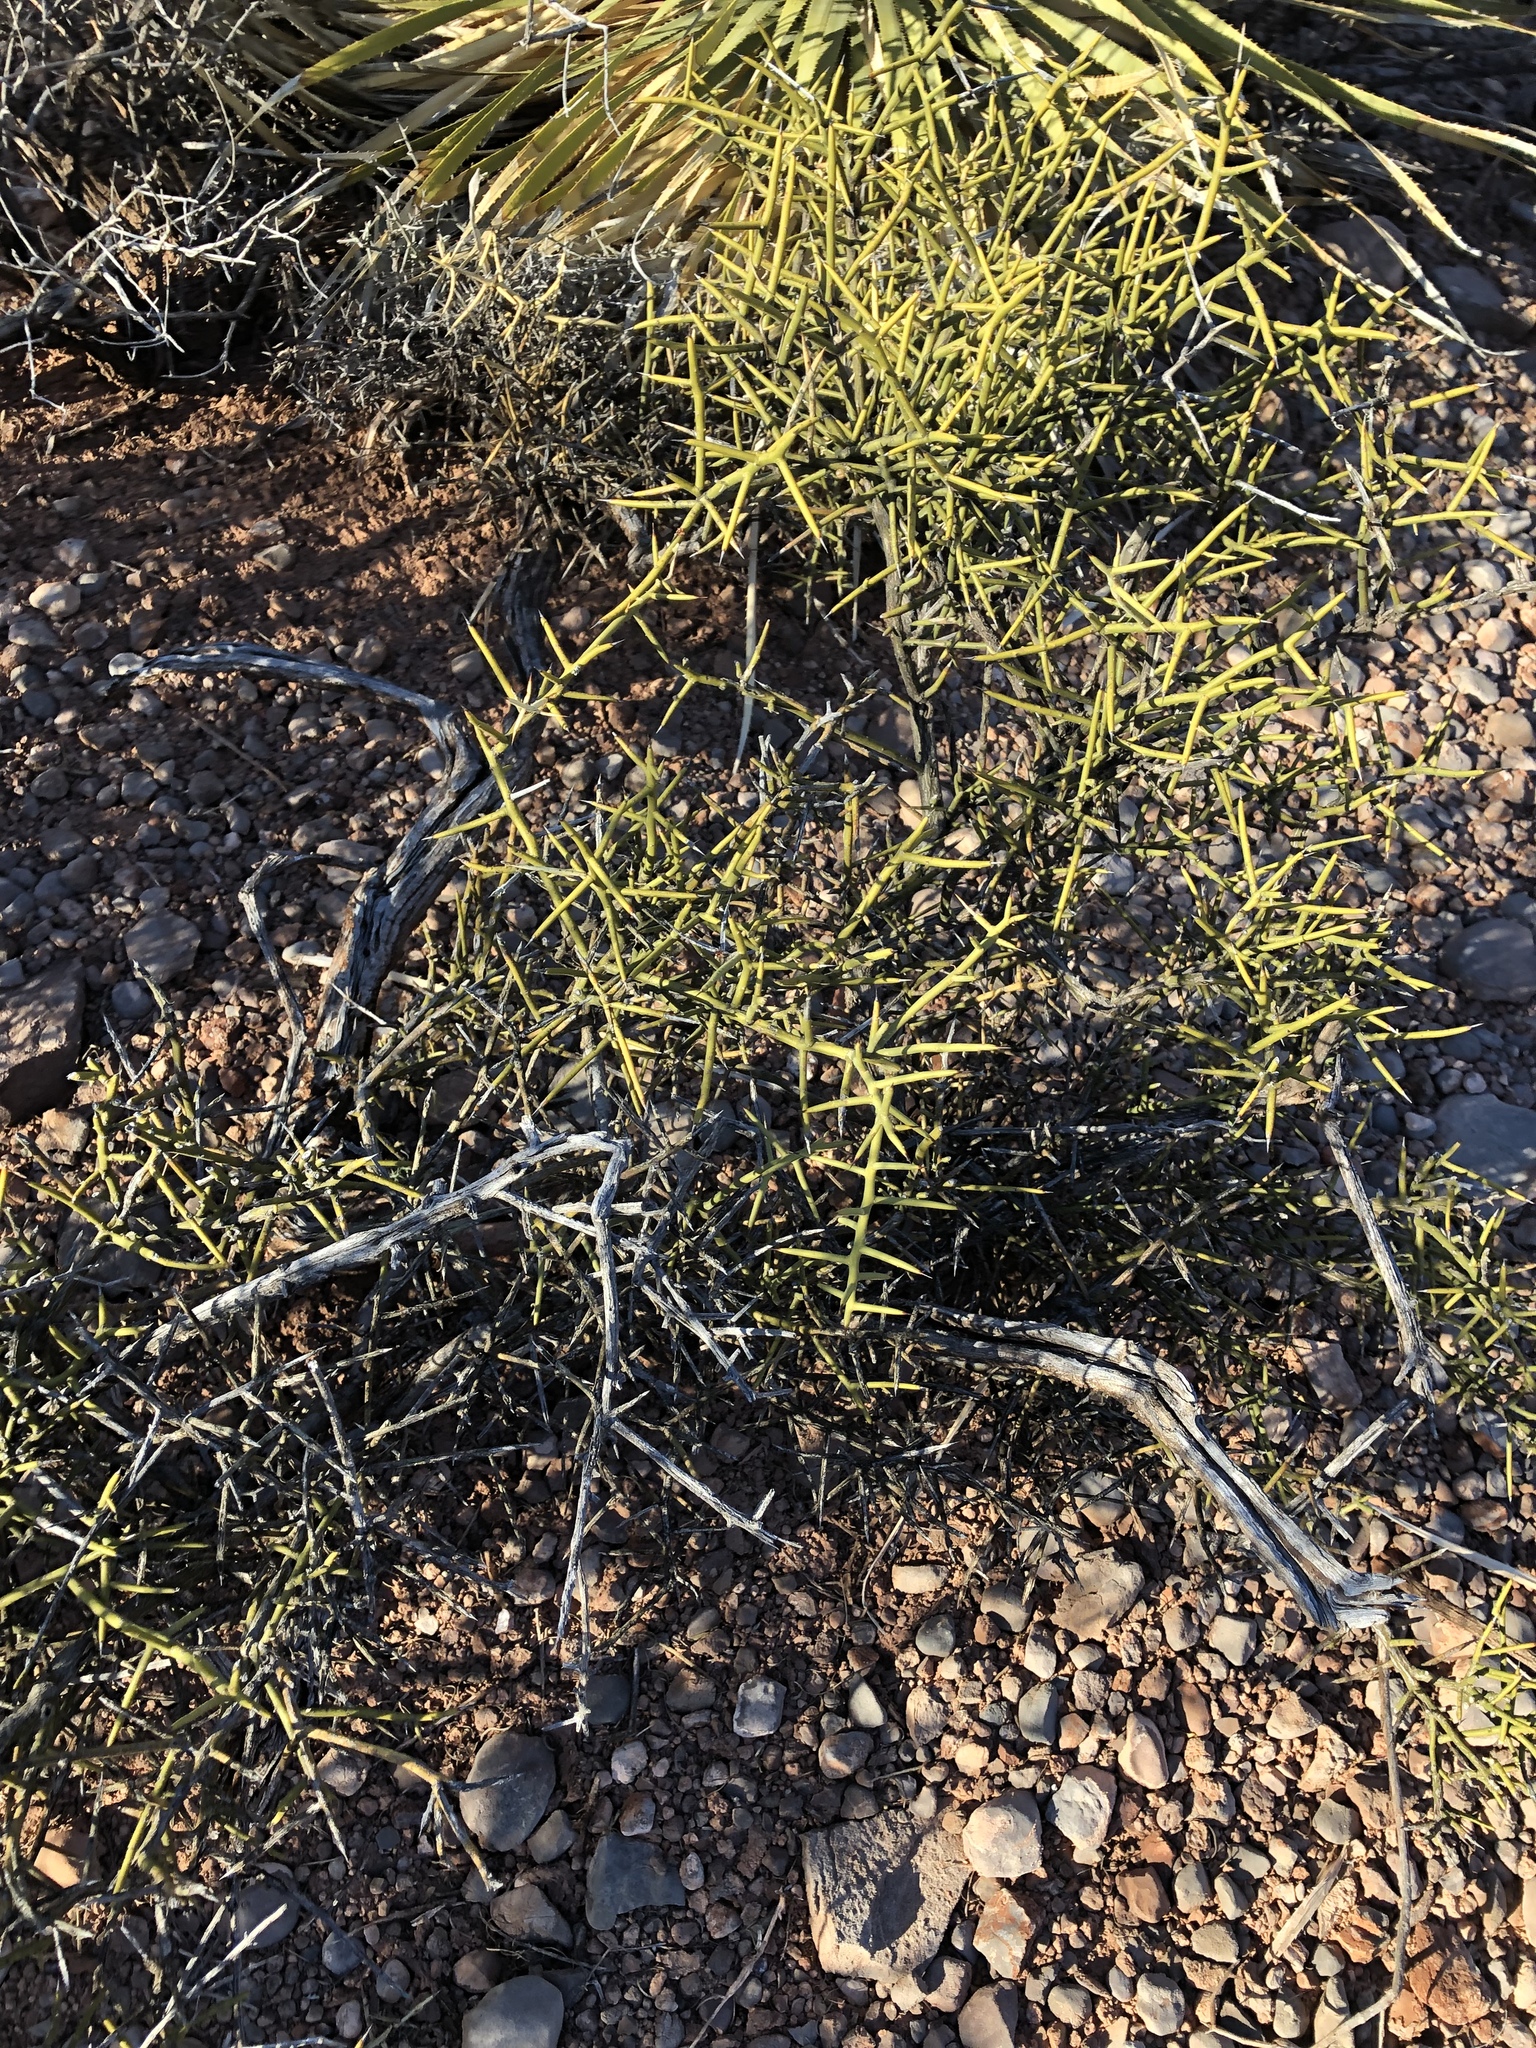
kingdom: Plantae
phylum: Tracheophyta
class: Magnoliopsida
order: Brassicales
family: Koeberliniaceae
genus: Koeberlinia
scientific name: Koeberlinia spinosa
